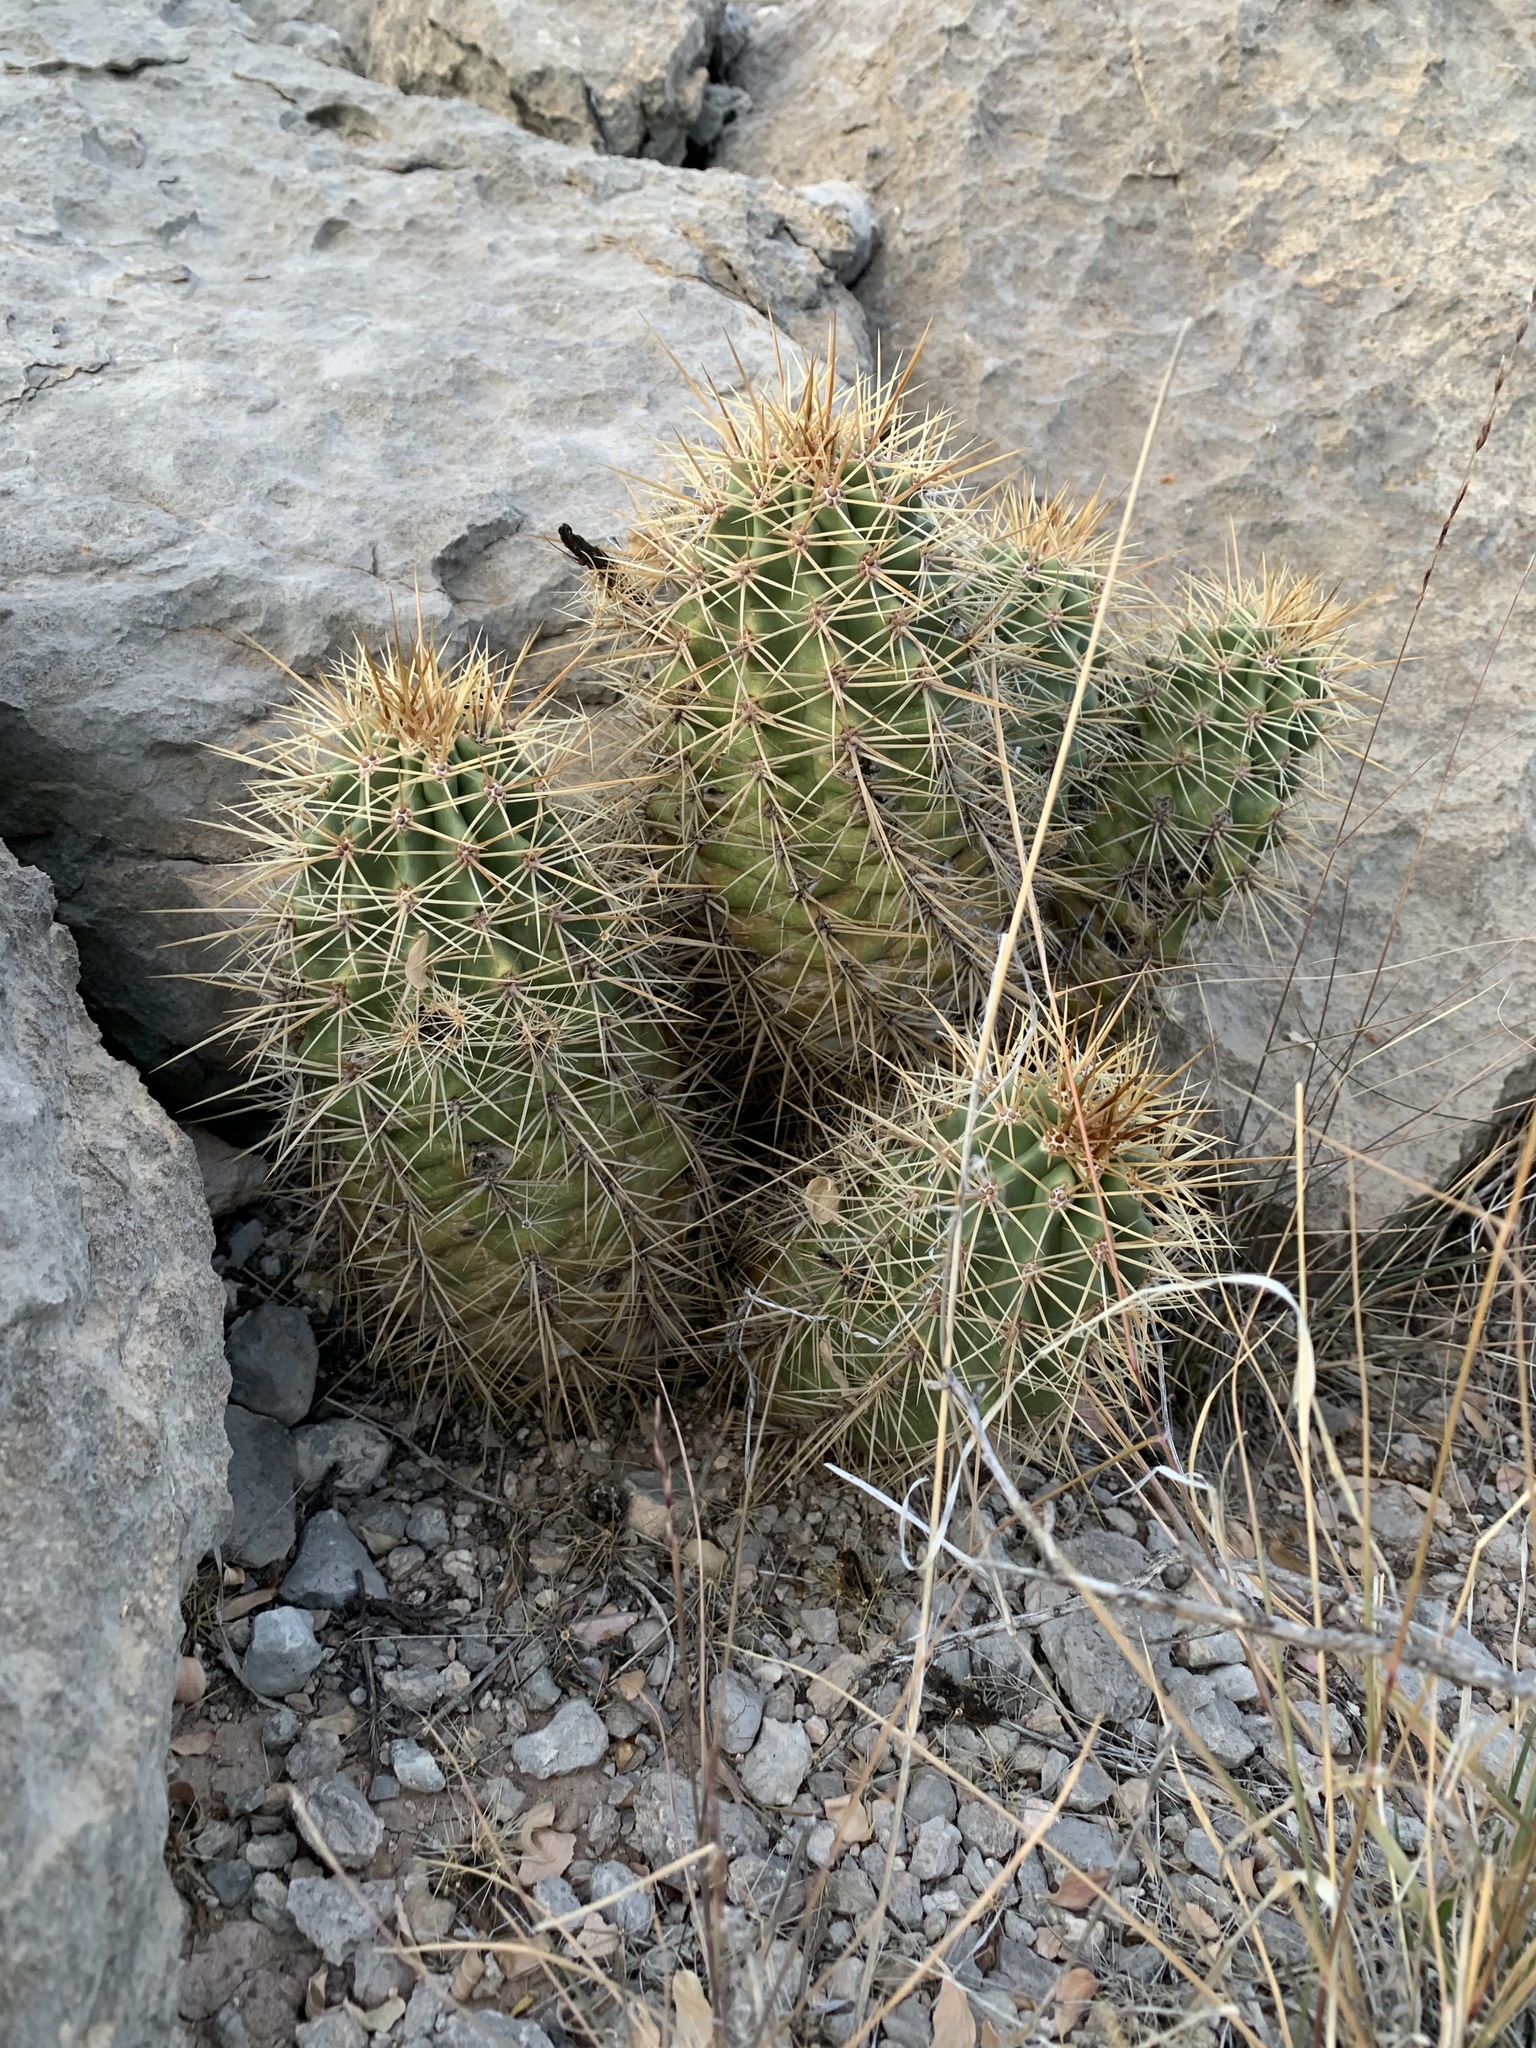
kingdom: Plantae
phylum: Tracheophyta
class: Magnoliopsida
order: Caryophyllales
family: Cactaceae
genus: Echinocereus
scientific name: Echinocereus coccineus
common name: Scarlet hedgehog cactus
